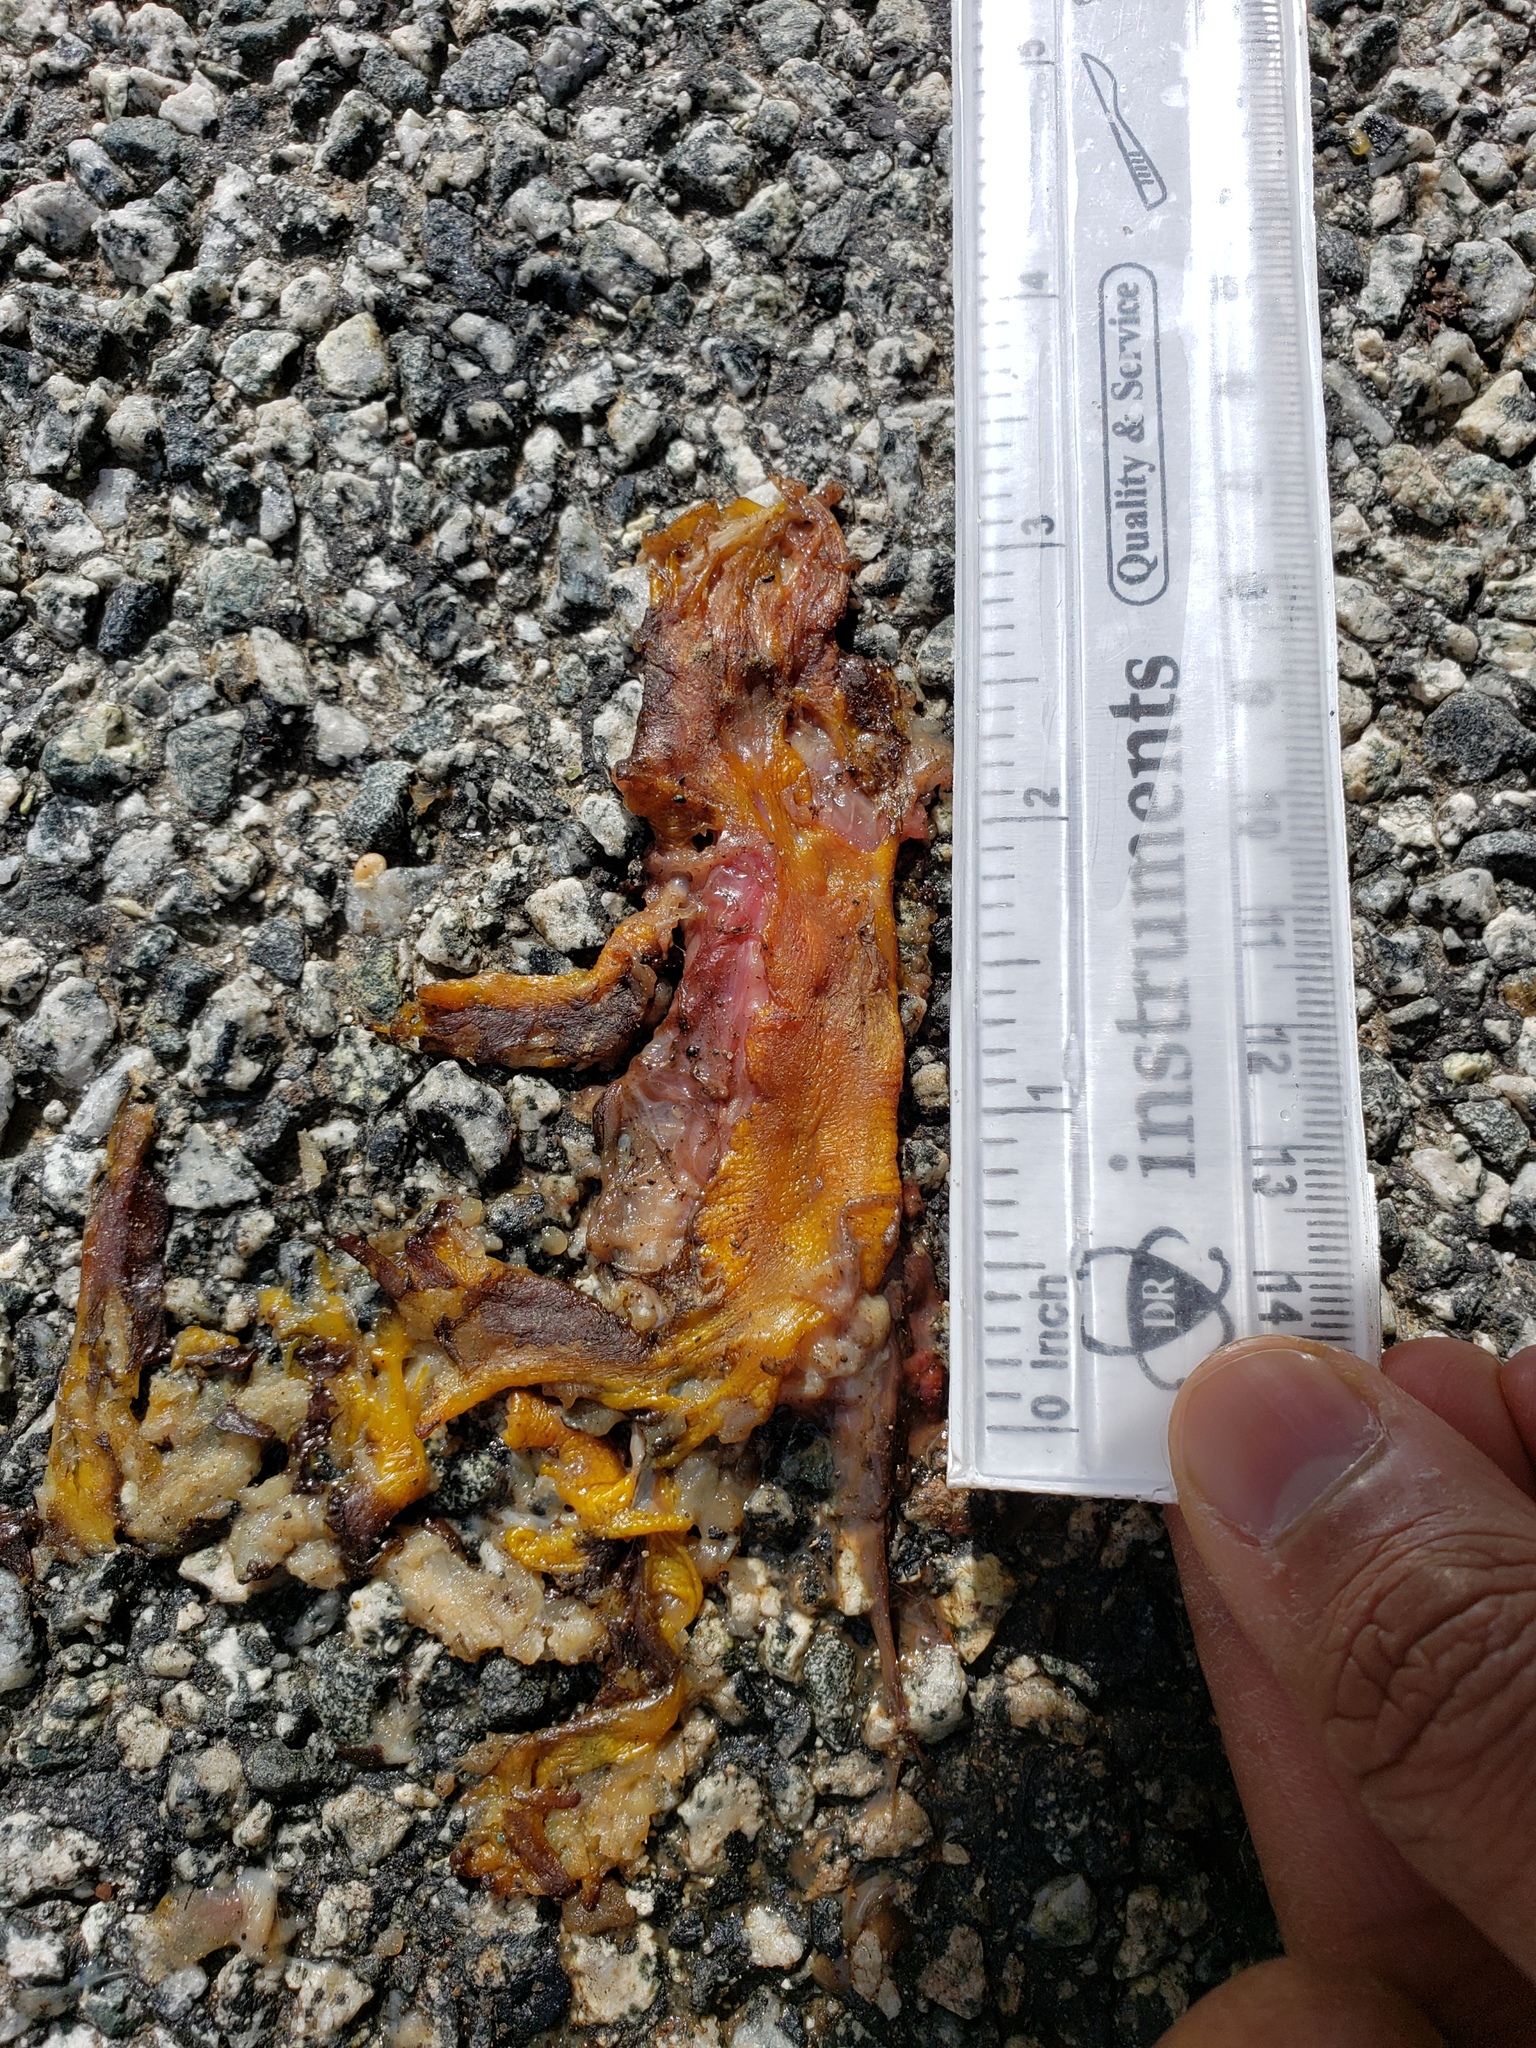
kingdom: Animalia
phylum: Chordata
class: Amphibia
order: Caudata
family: Salamandridae
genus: Taricha
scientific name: Taricha
